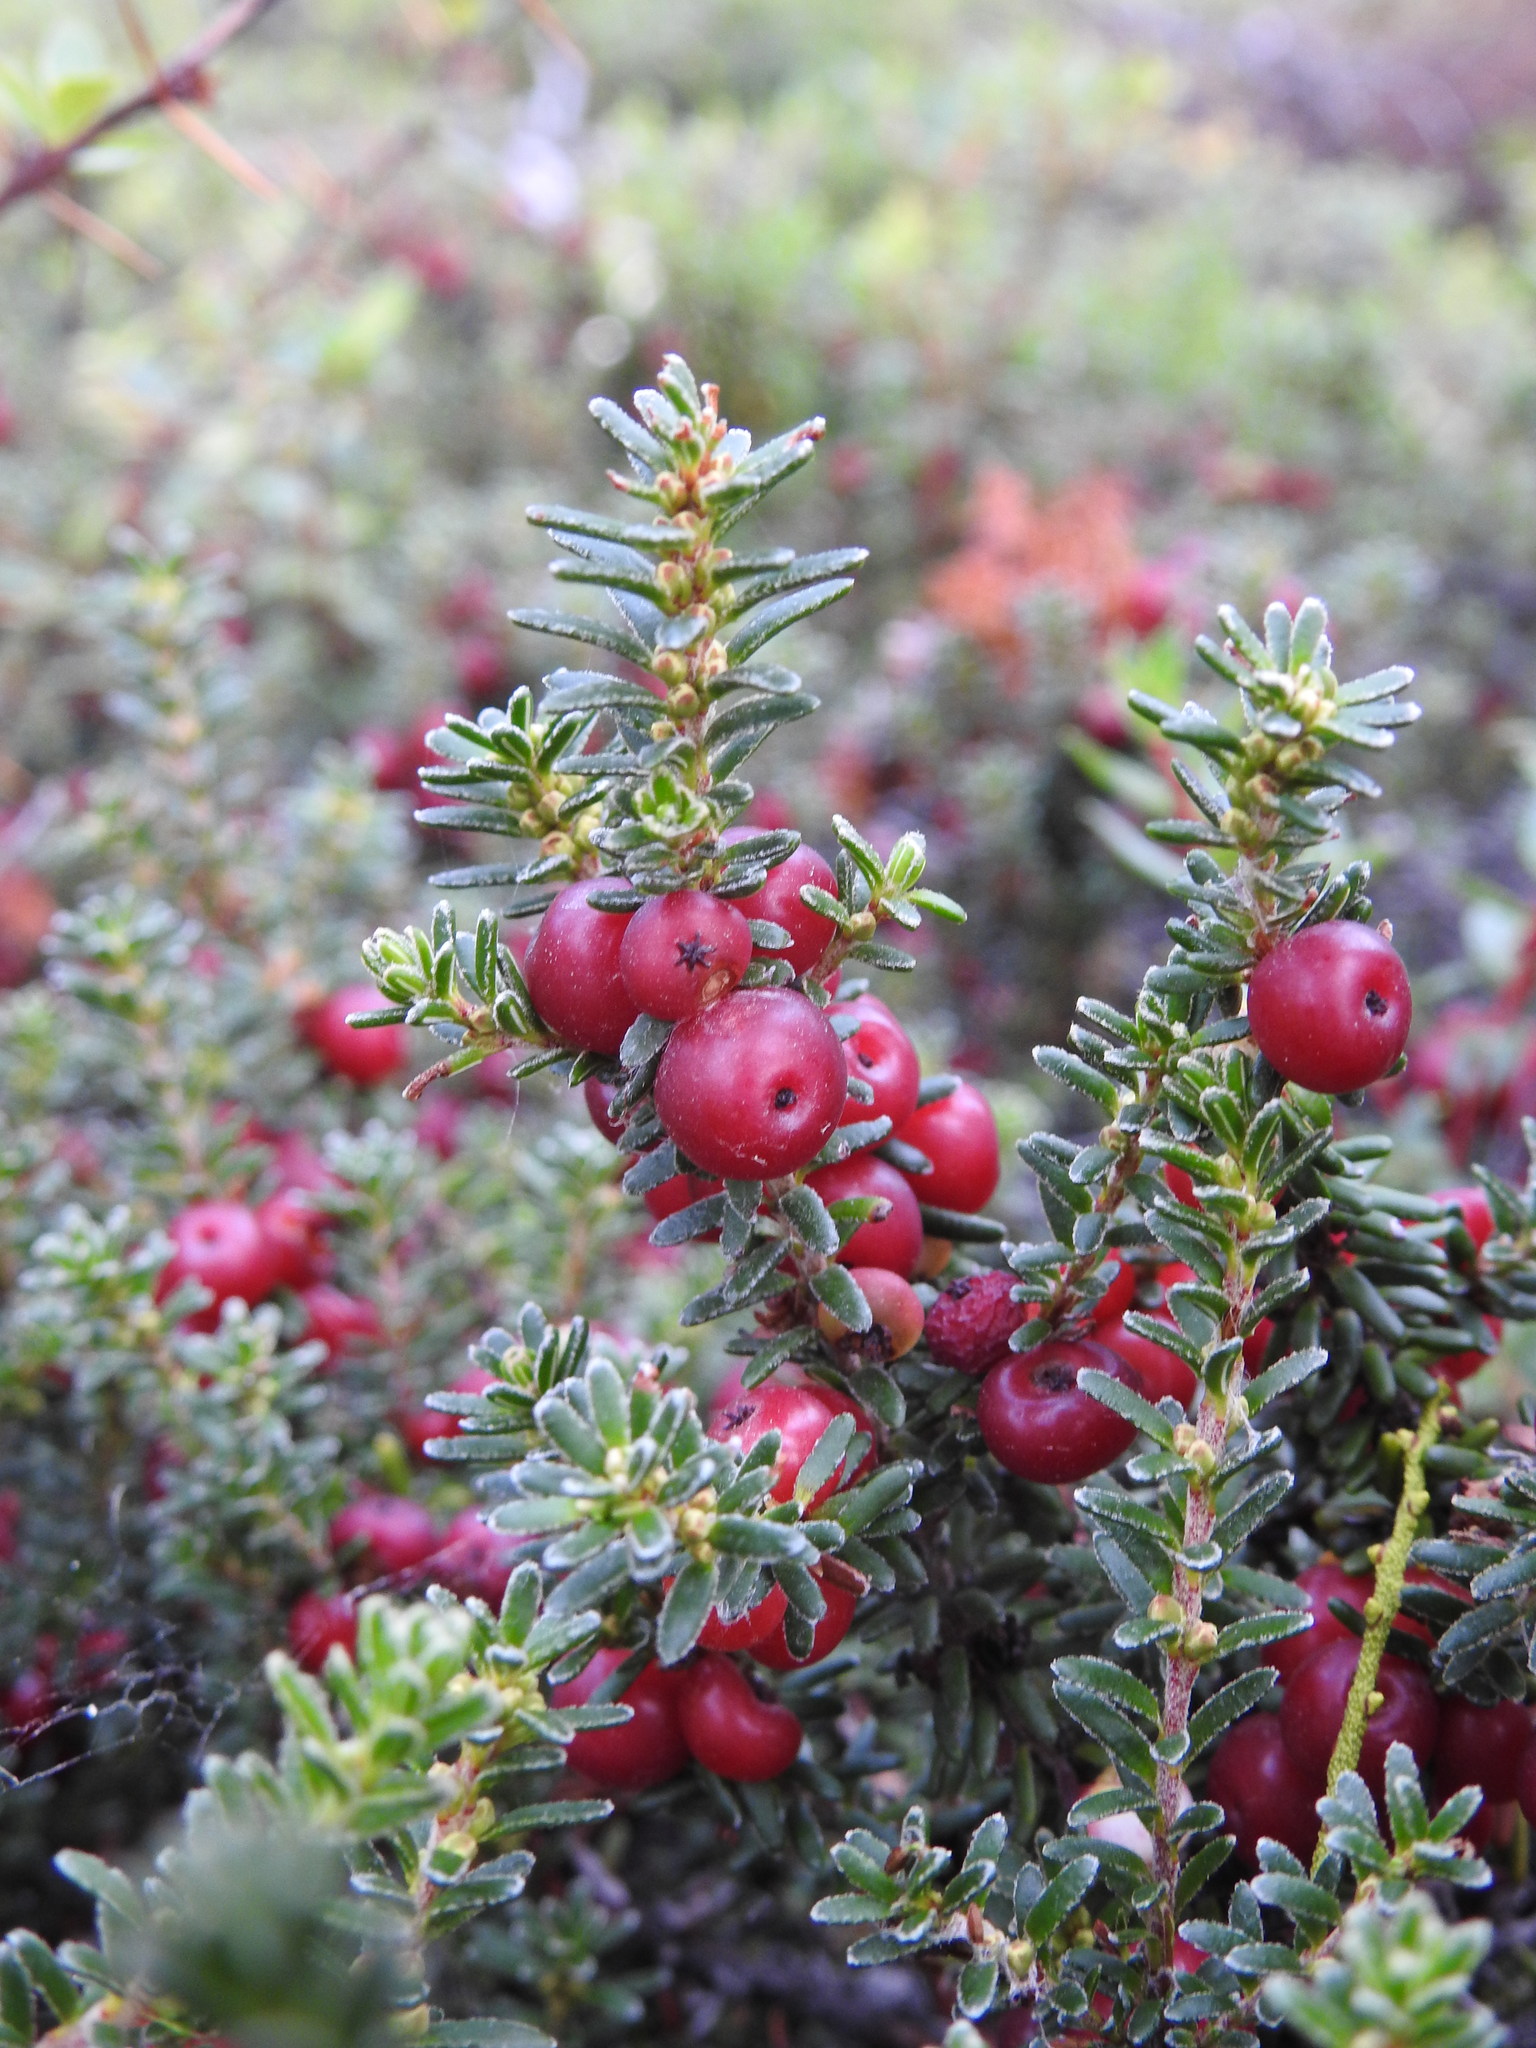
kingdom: Plantae
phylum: Tracheophyta
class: Magnoliopsida
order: Ericales
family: Ericaceae
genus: Empetrum
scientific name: Empetrum rubrum
